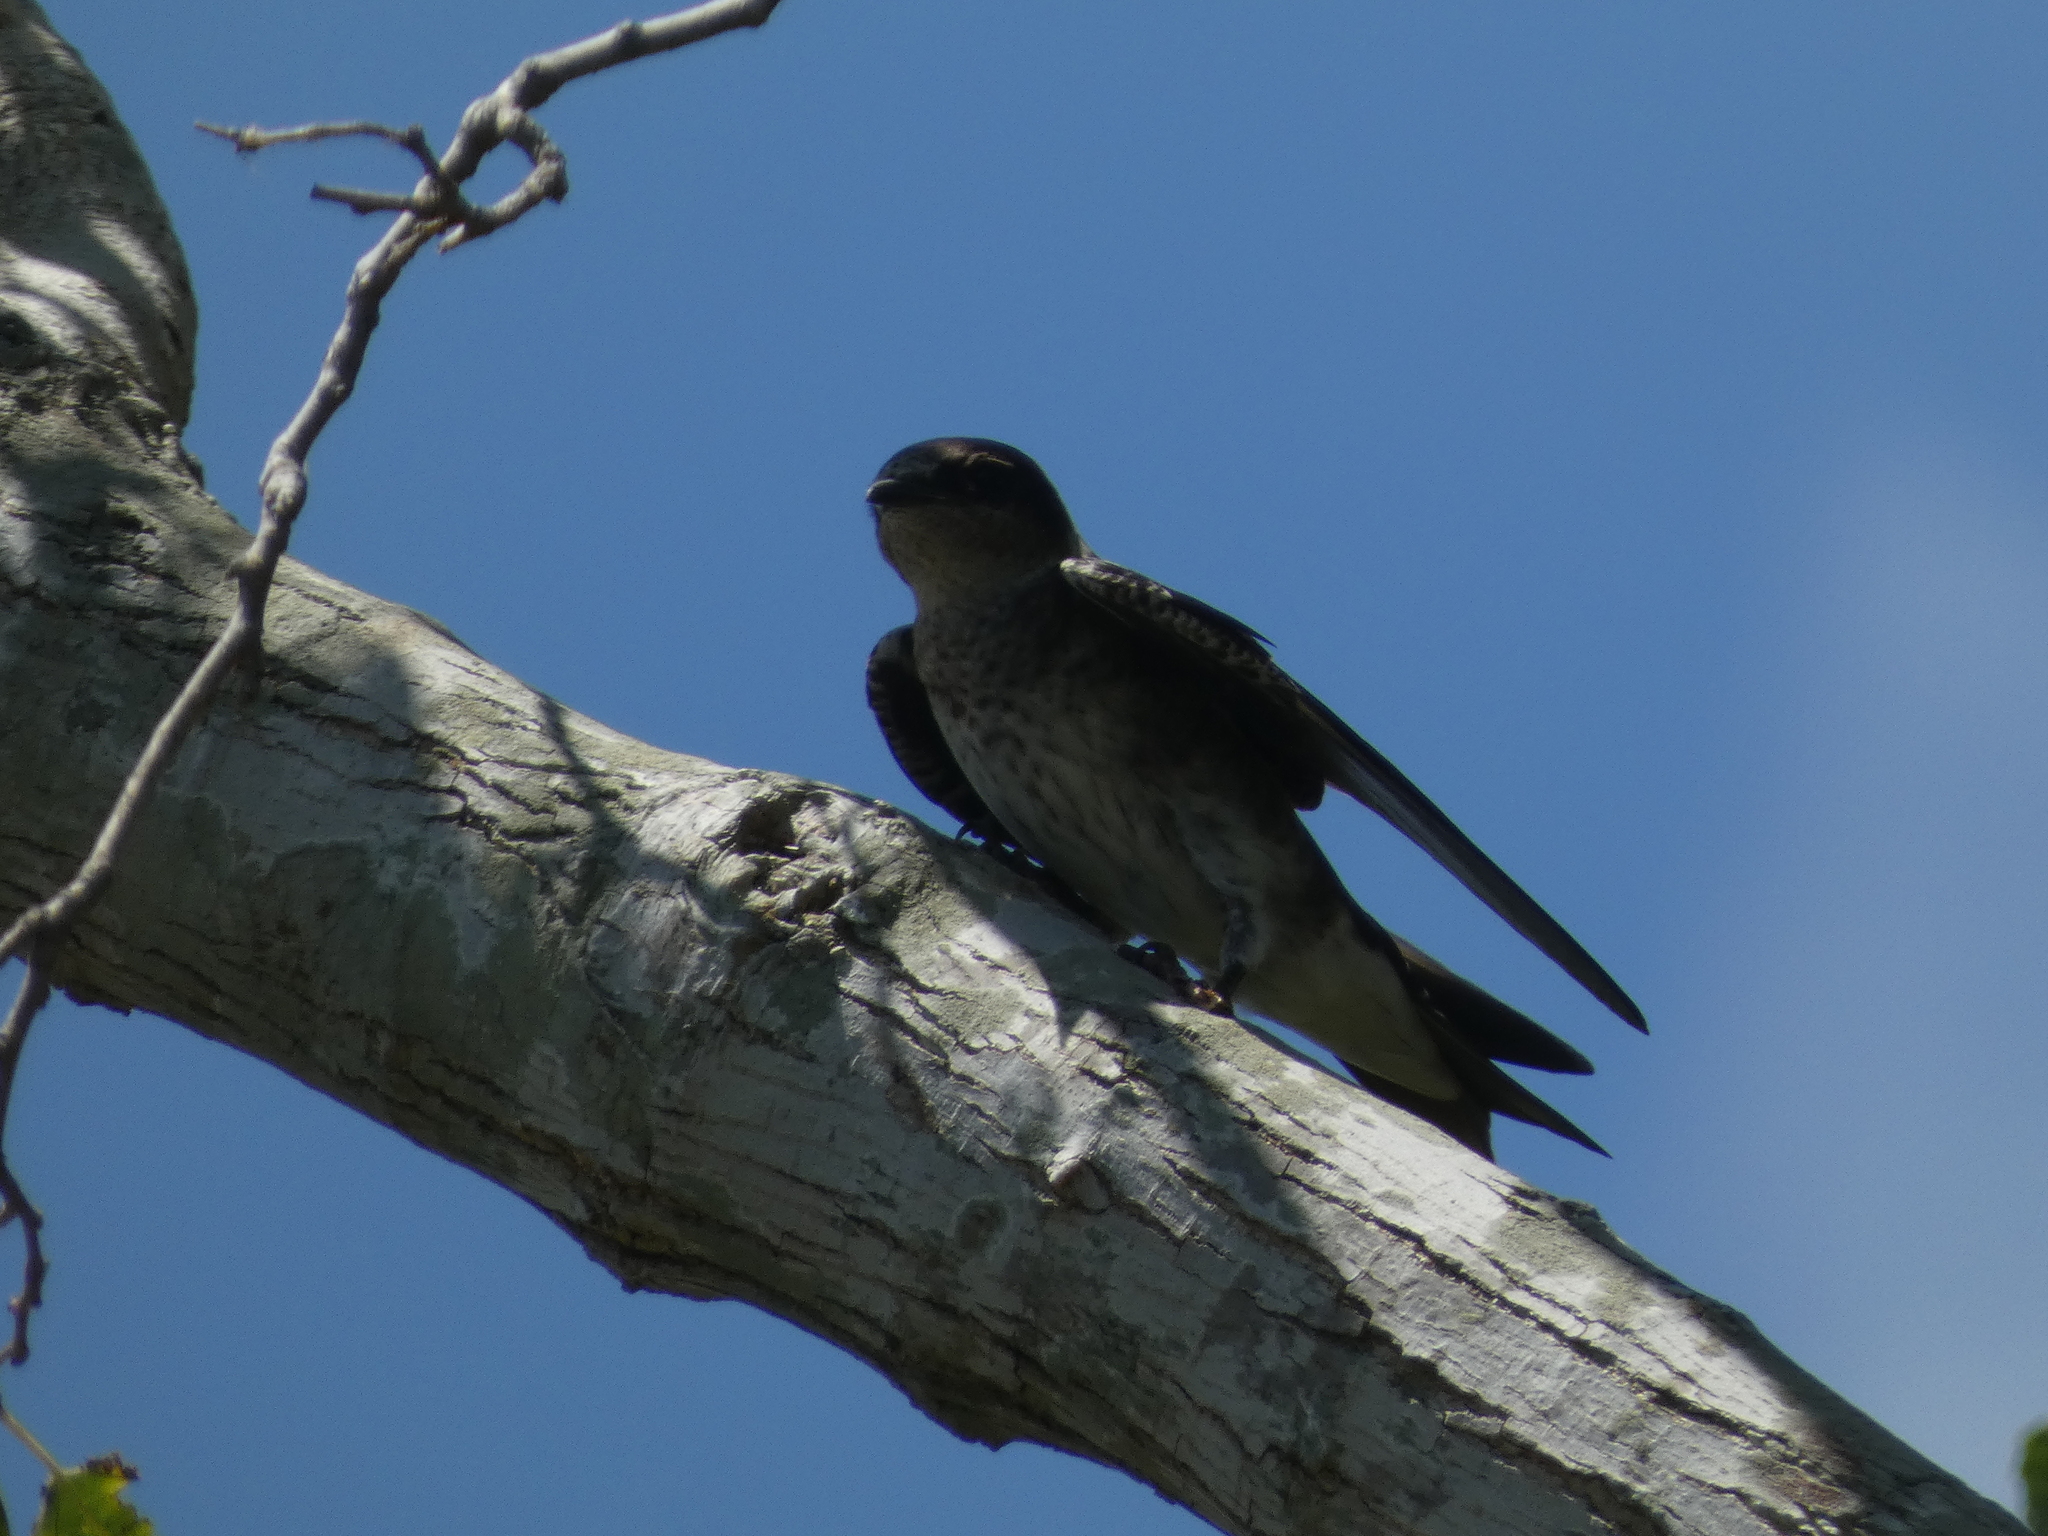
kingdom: Animalia
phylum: Chordata
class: Aves
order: Passeriformes
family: Hirundinidae
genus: Progne
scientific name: Progne subis
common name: Purple martin
